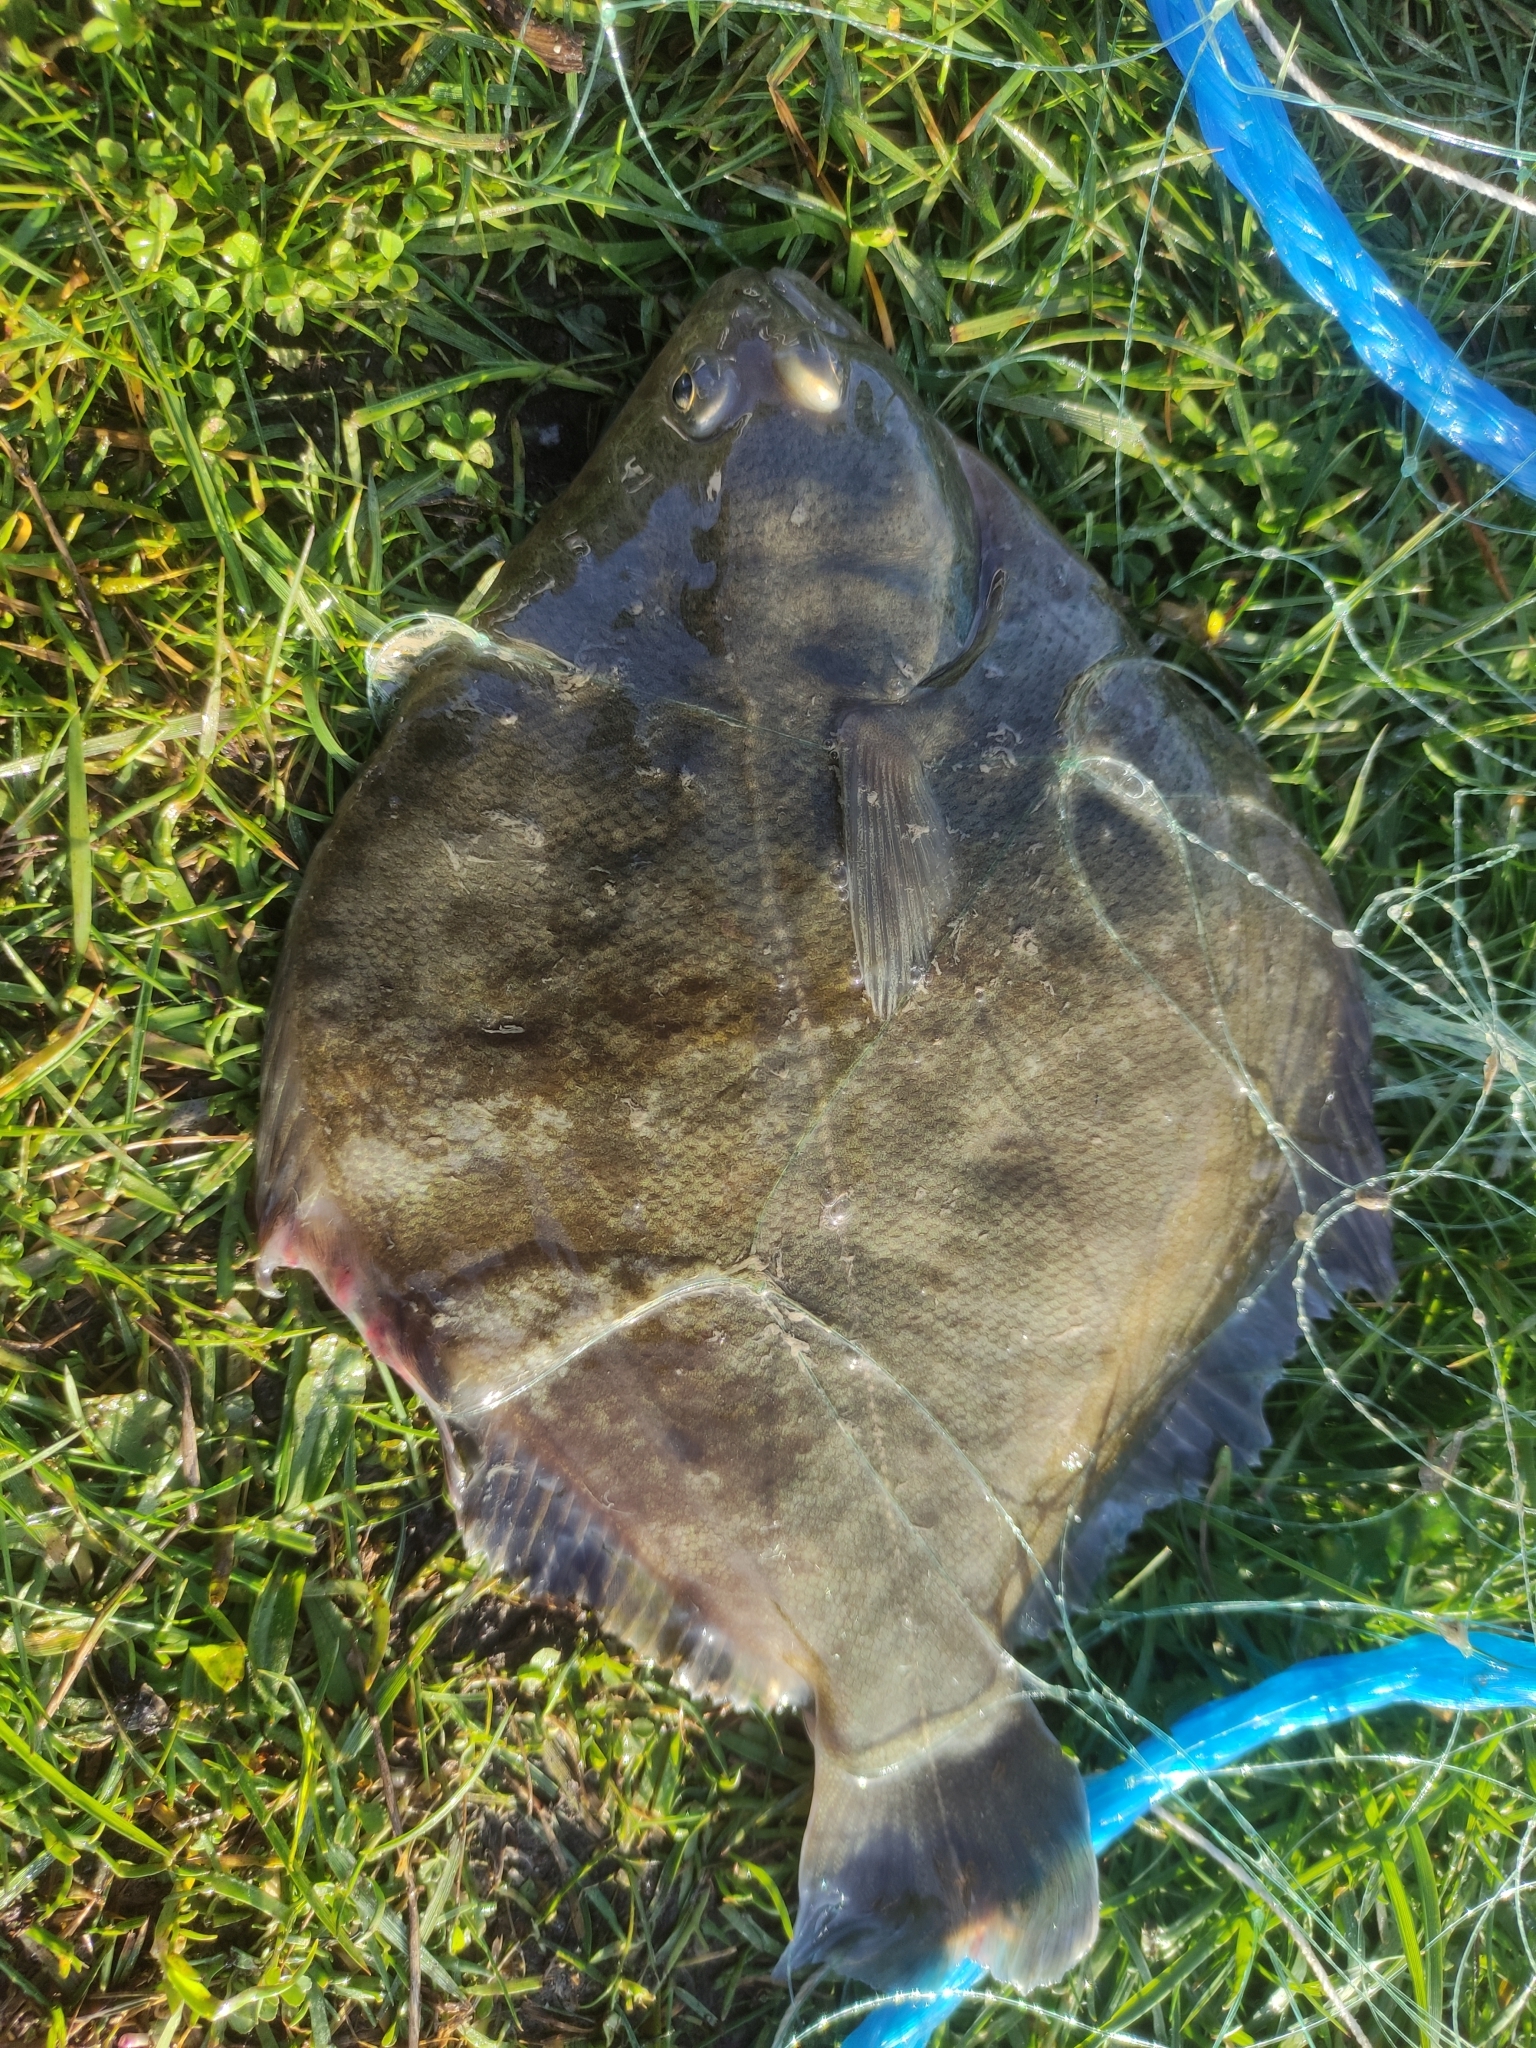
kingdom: Animalia
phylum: Chordata
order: Pleuronectiformes
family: Pleuronectidae
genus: Rhombosolea
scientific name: Rhombosolea plebeia
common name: Dab
